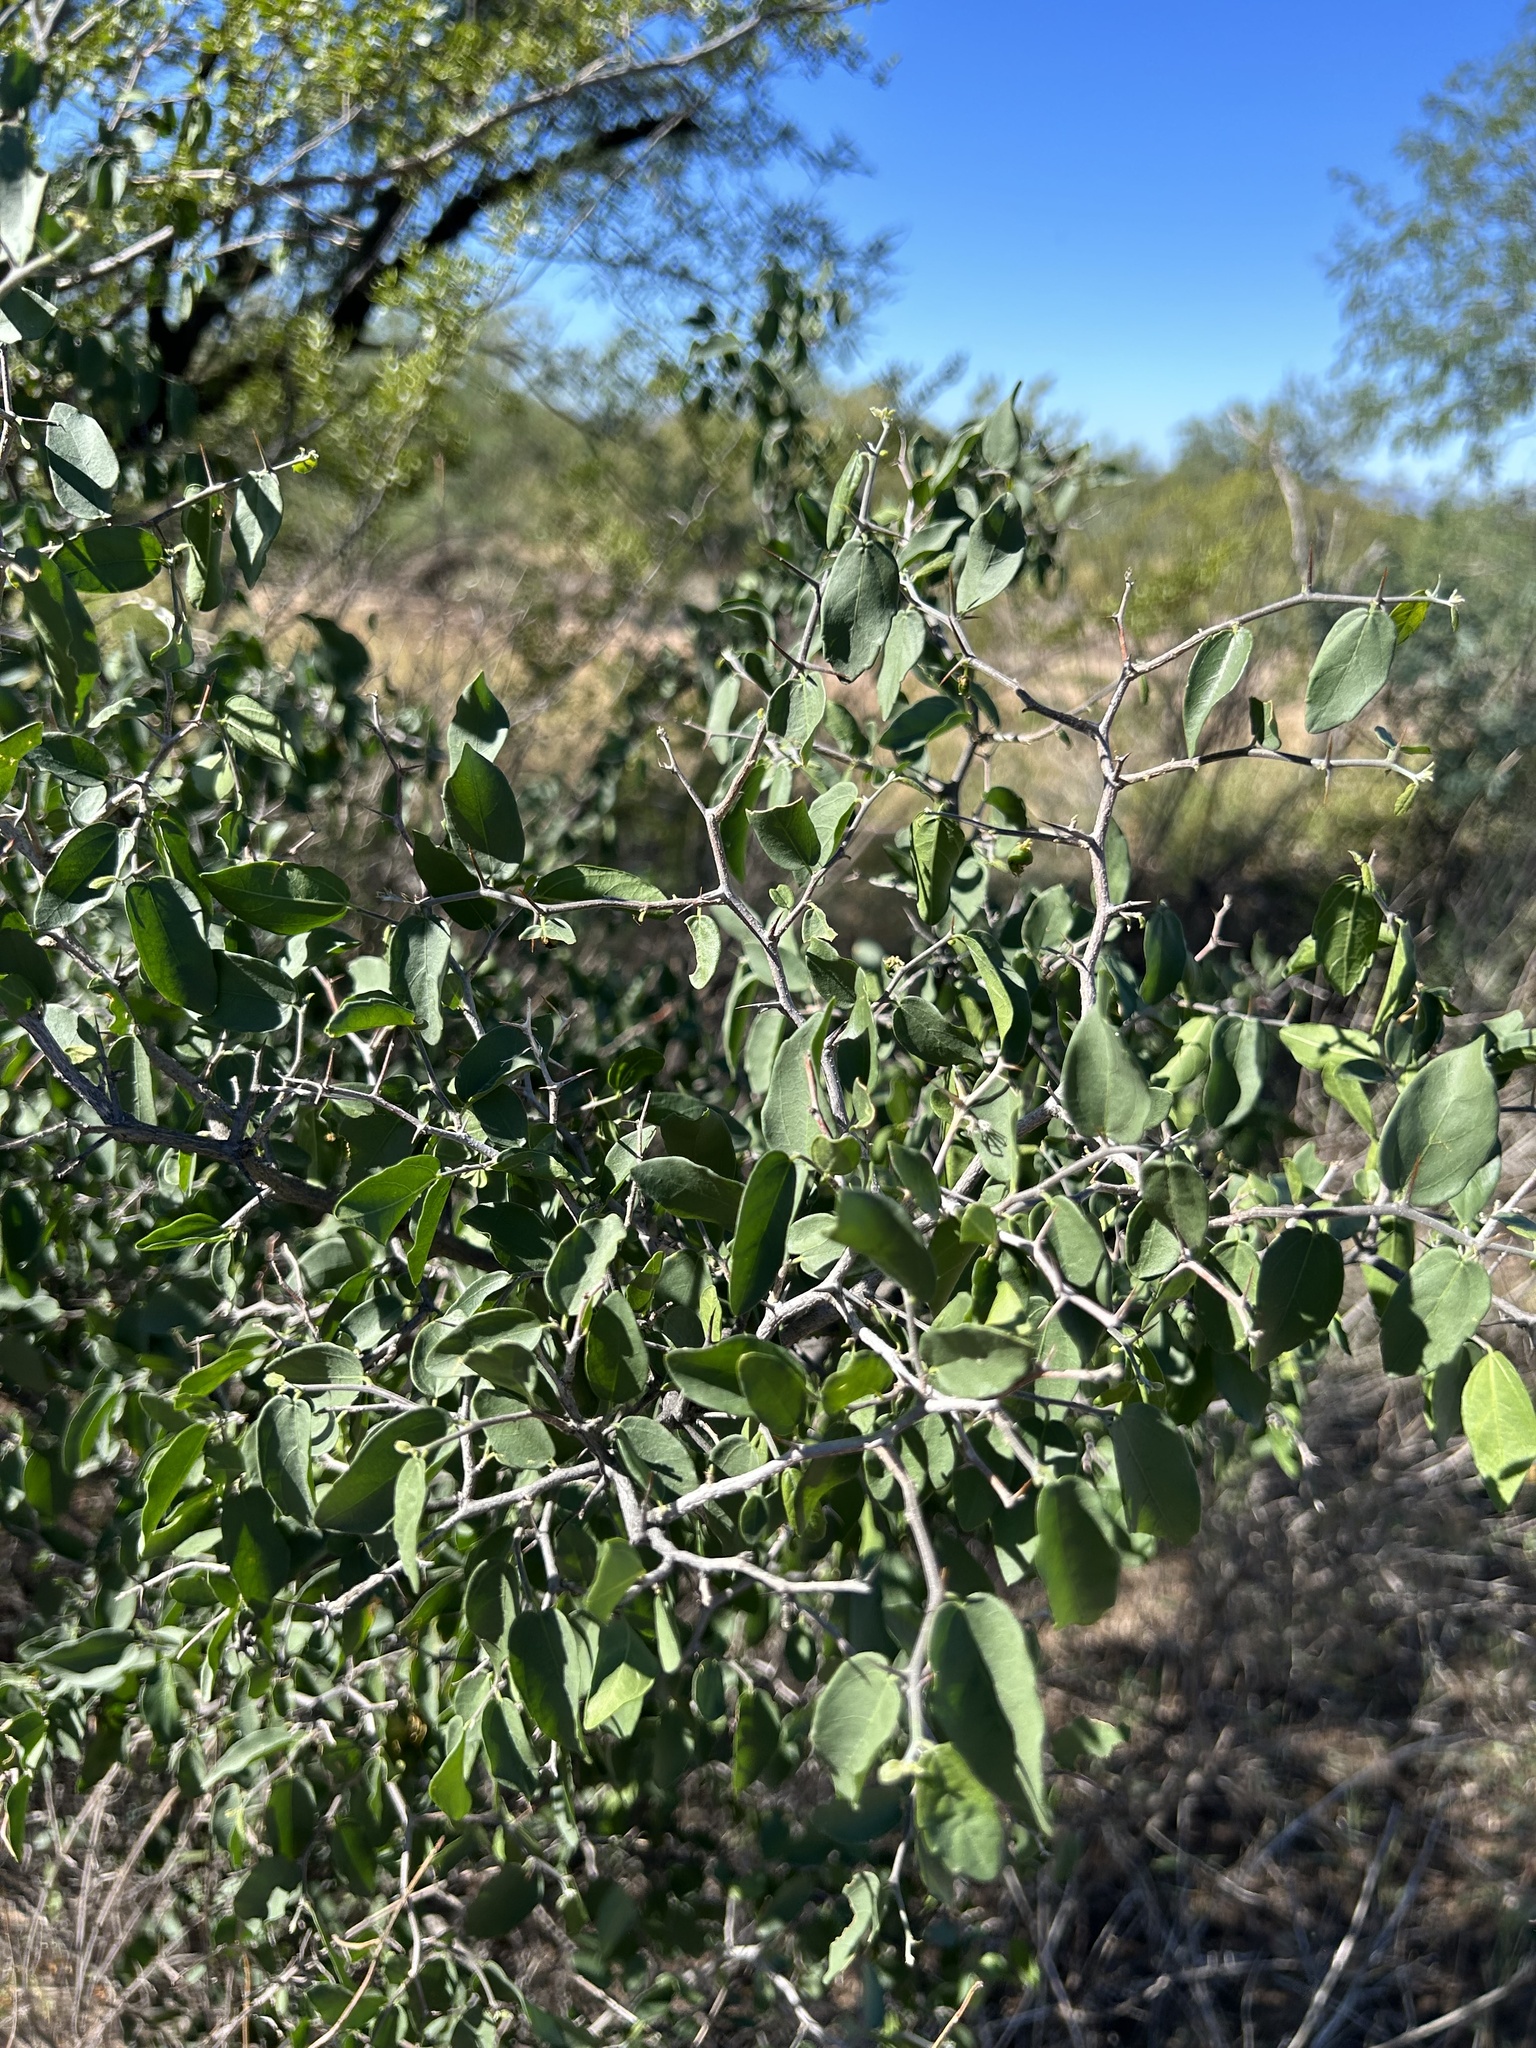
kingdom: Plantae
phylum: Tracheophyta
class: Magnoliopsida
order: Rosales
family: Cannabaceae
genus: Celtis
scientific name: Celtis pallida
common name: Desert hackberry
